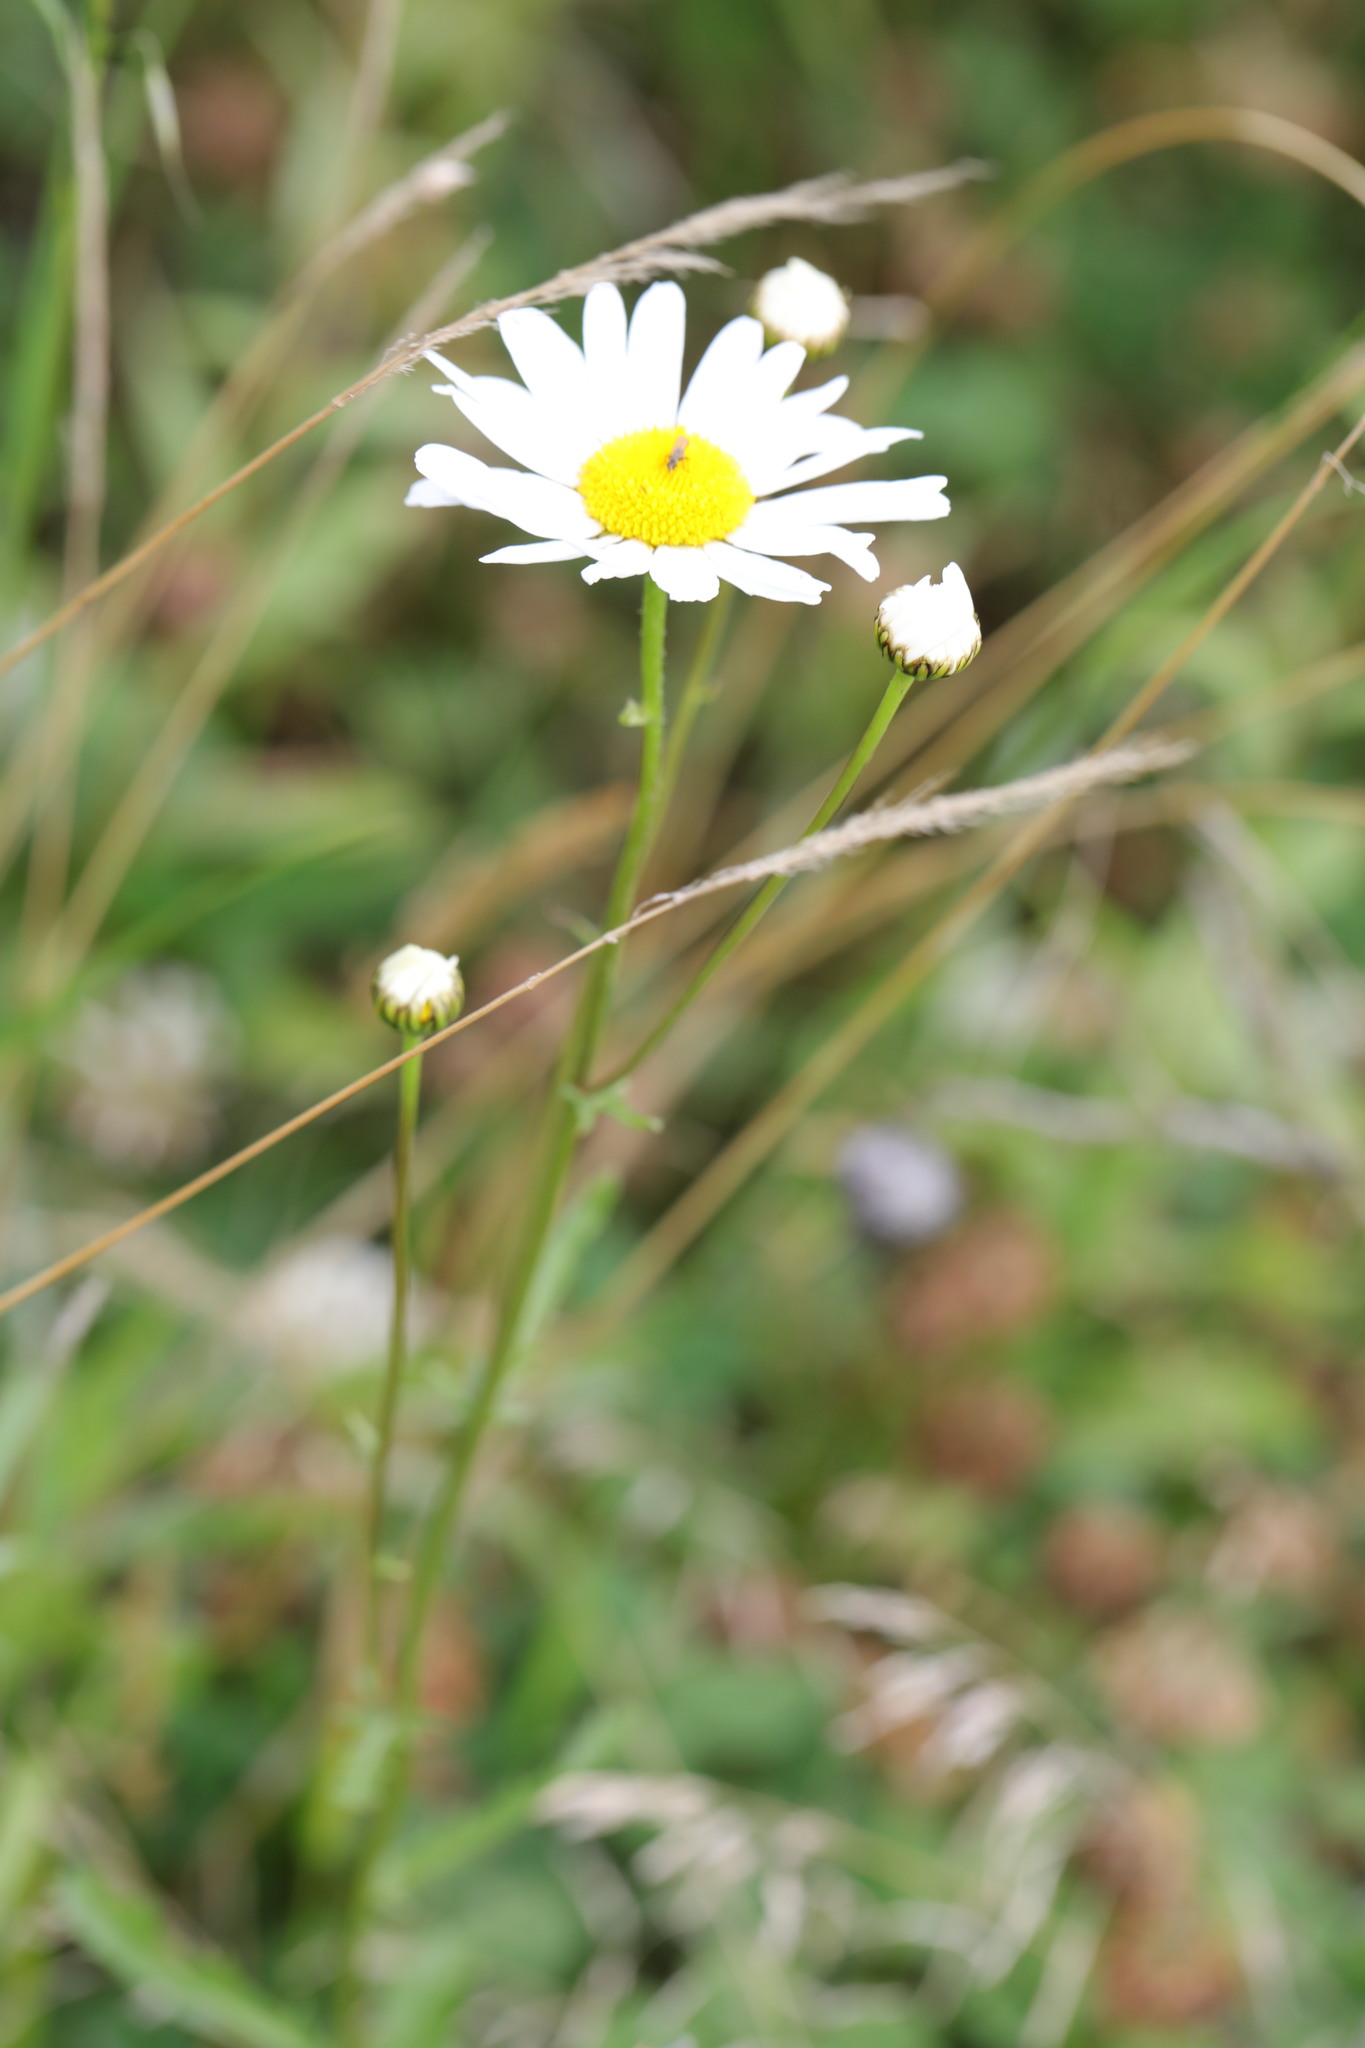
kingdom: Plantae
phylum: Tracheophyta
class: Magnoliopsida
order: Asterales
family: Asteraceae
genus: Leucanthemum
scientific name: Leucanthemum vulgare
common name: Oxeye daisy
